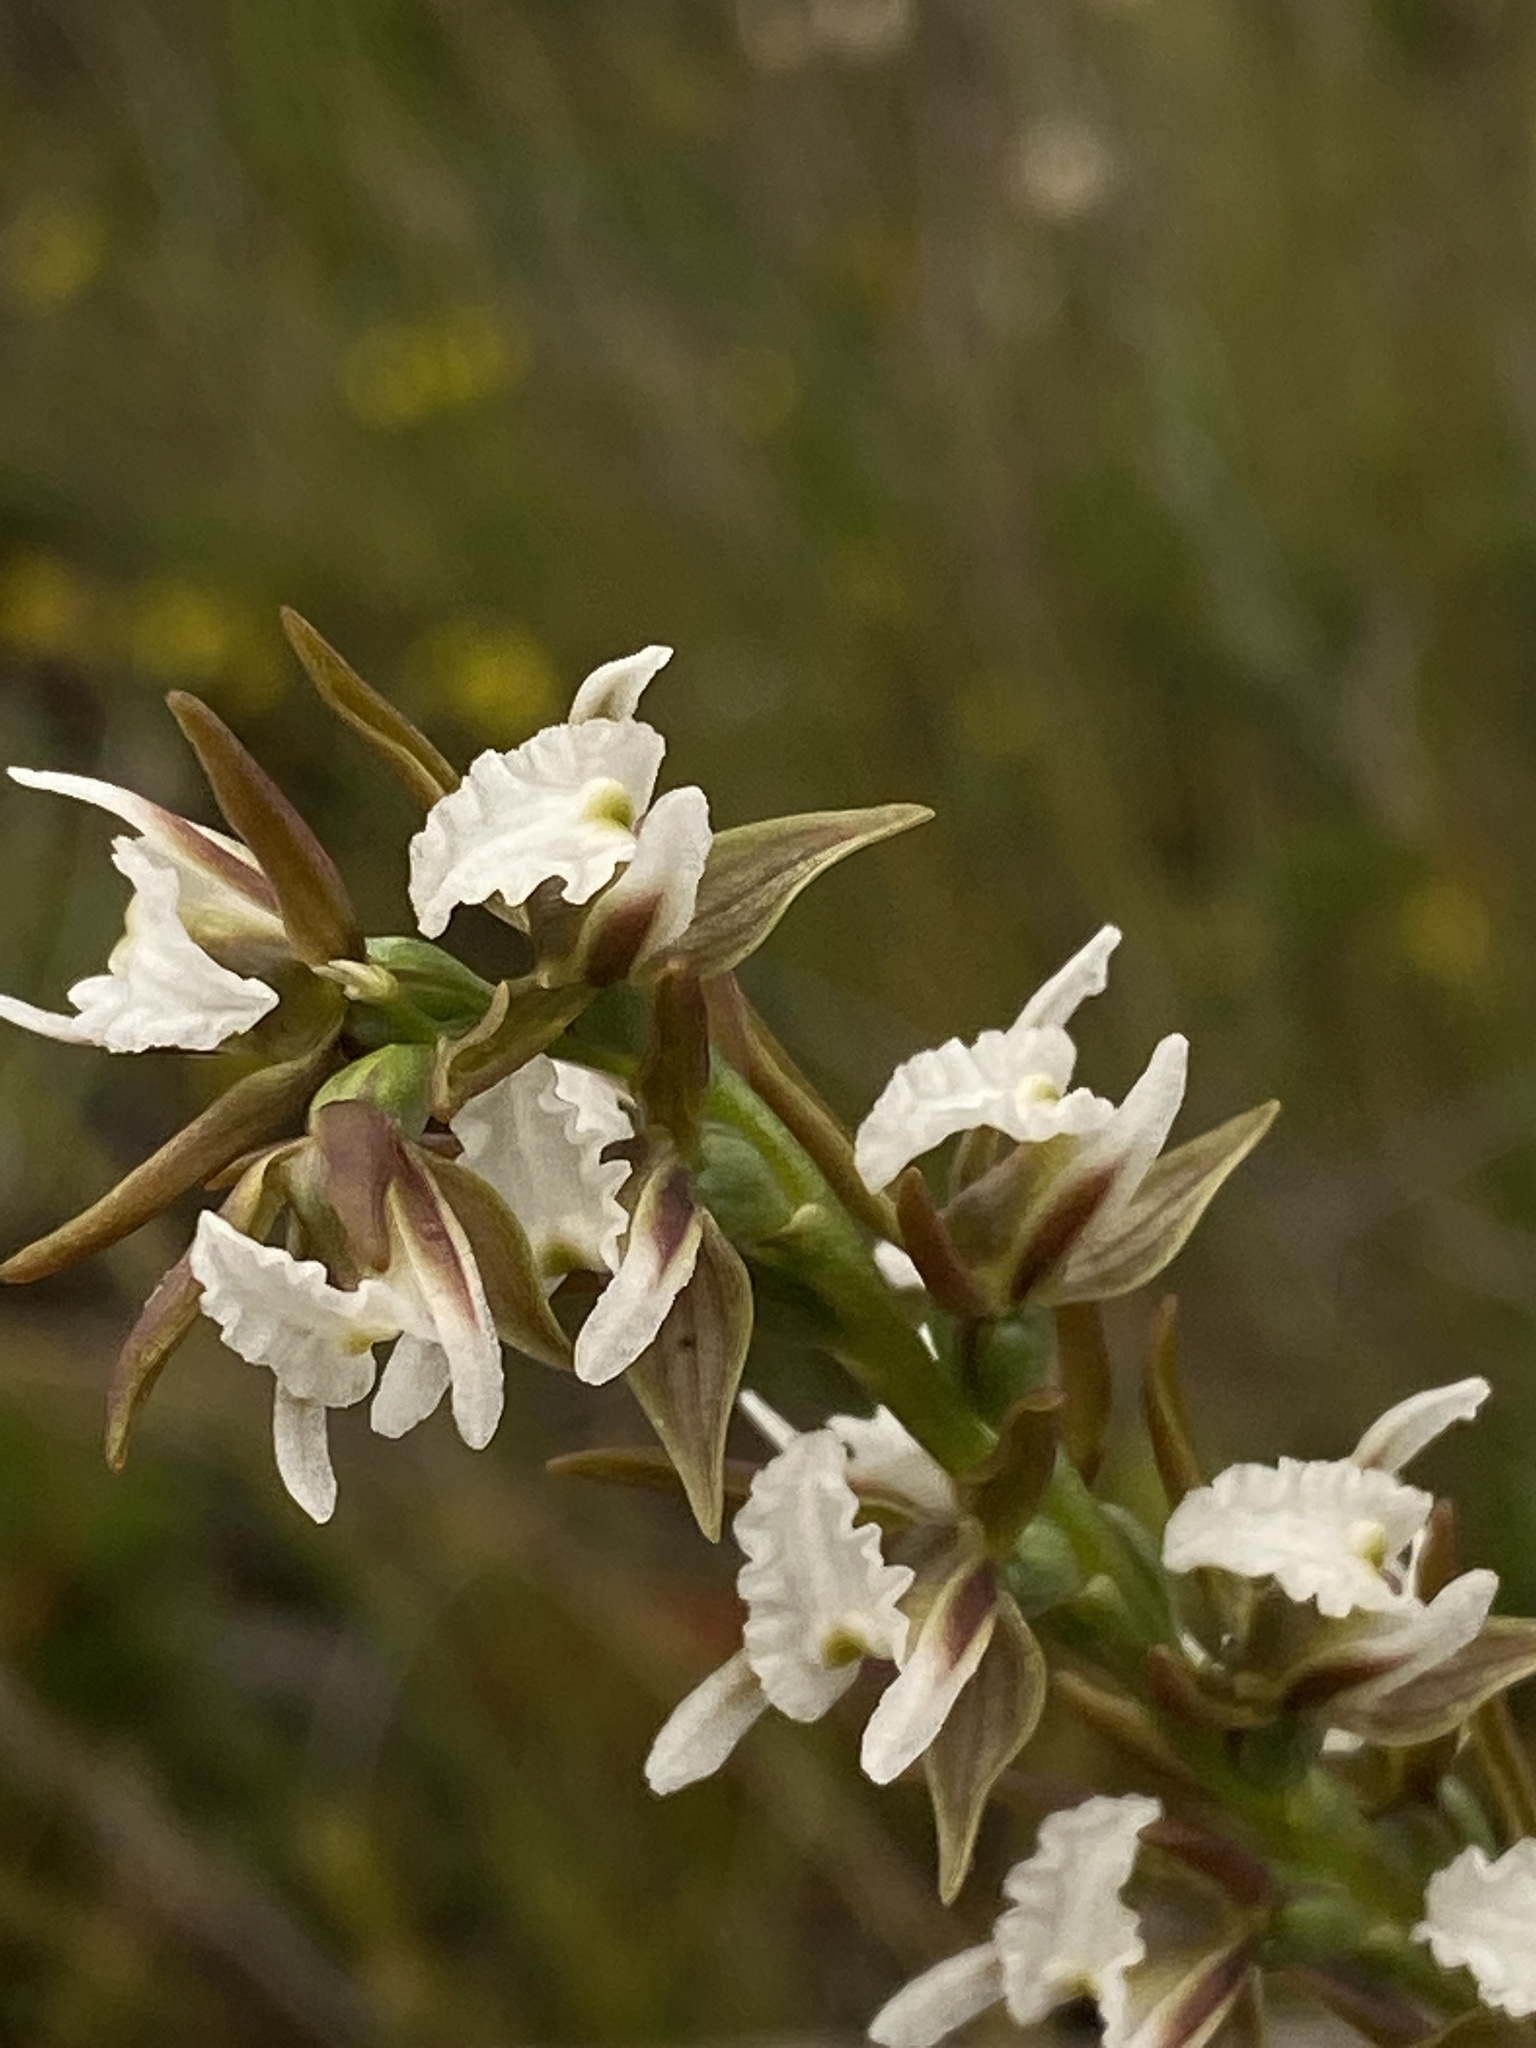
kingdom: Plantae
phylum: Tracheophyta
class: Liliopsida
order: Asparagales
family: Orchidaceae
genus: Prasophyllum
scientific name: Prasophyllum odoratum
